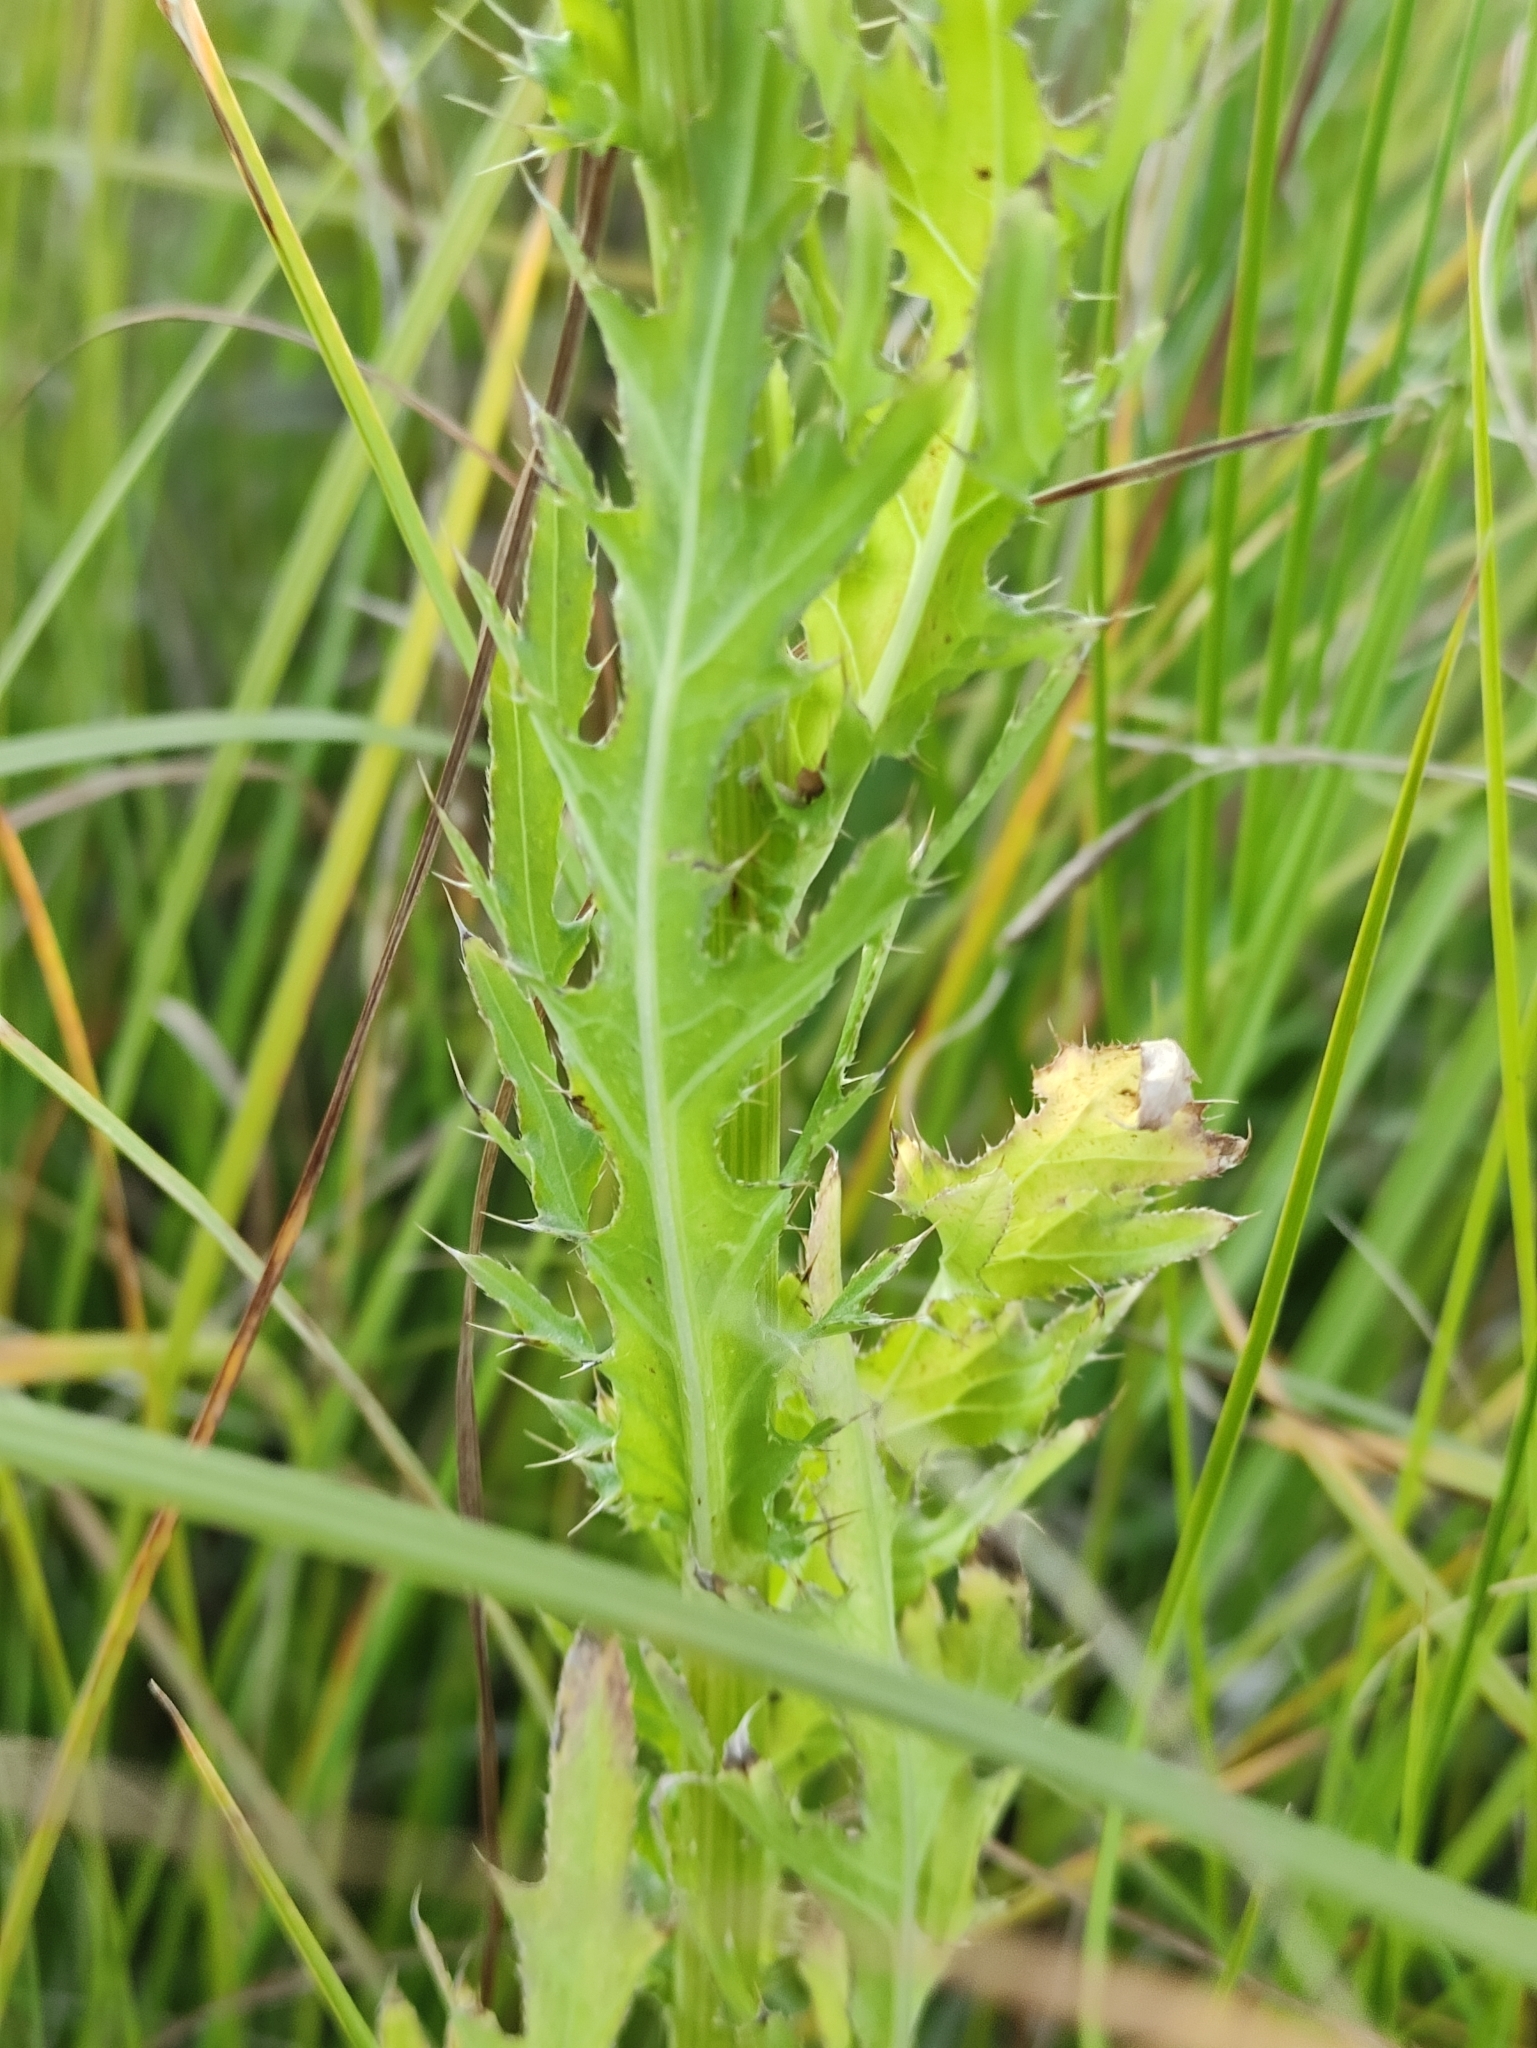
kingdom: Plantae
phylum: Tracheophyta
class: Magnoliopsida
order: Asterales
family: Asteraceae
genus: Cirsium
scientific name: Cirsium pendulum
